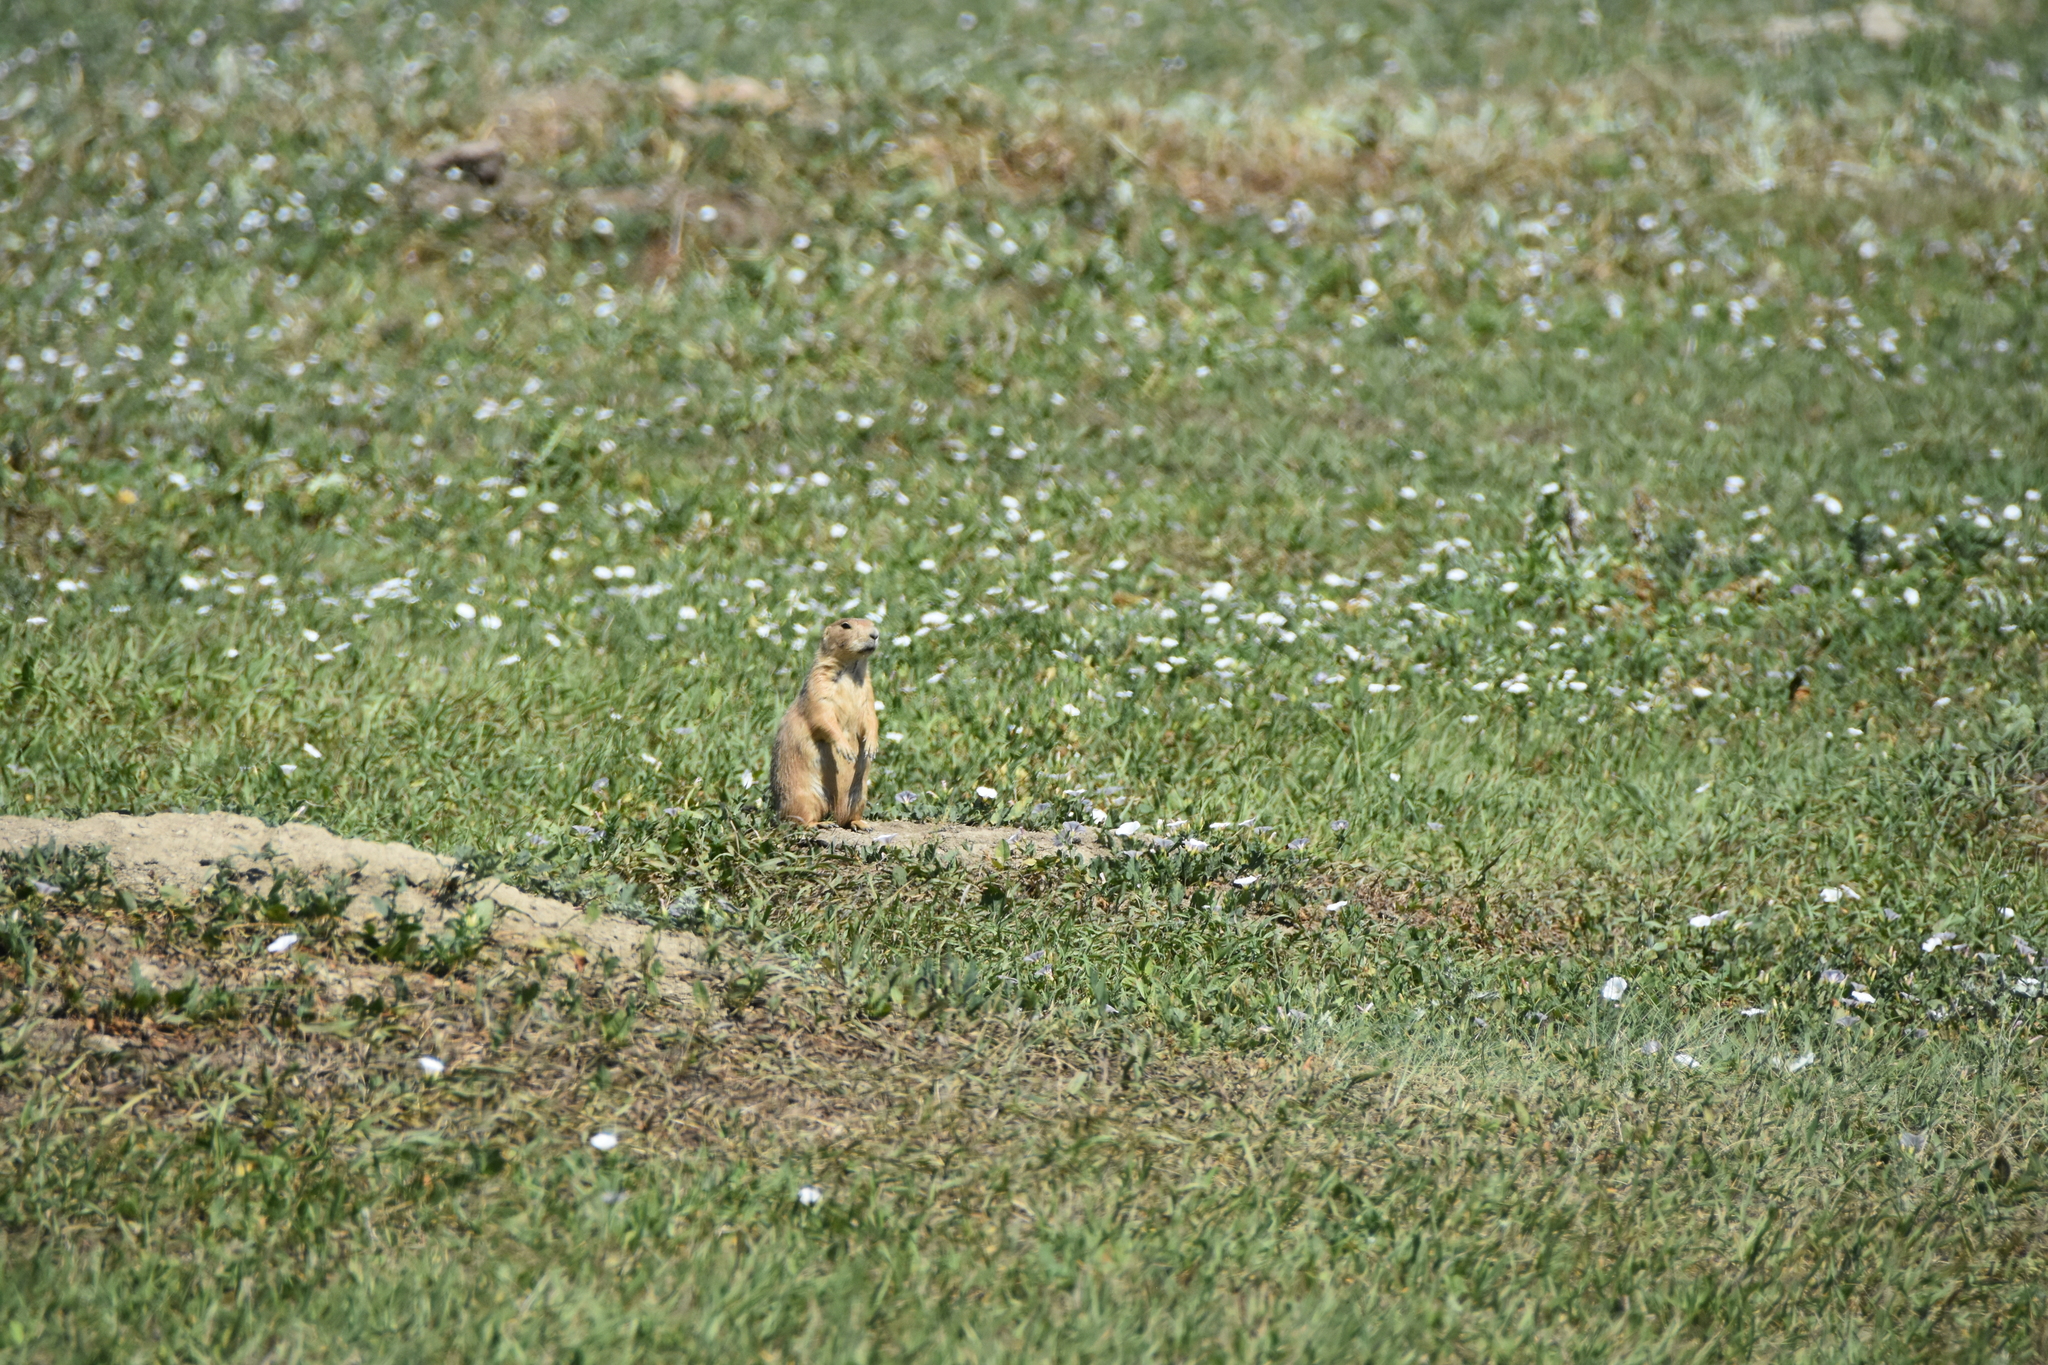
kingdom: Animalia
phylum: Chordata
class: Mammalia
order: Rodentia
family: Sciuridae
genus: Cynomys
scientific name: Cynomys ludovicianus
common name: Black-tailed prairie dog
